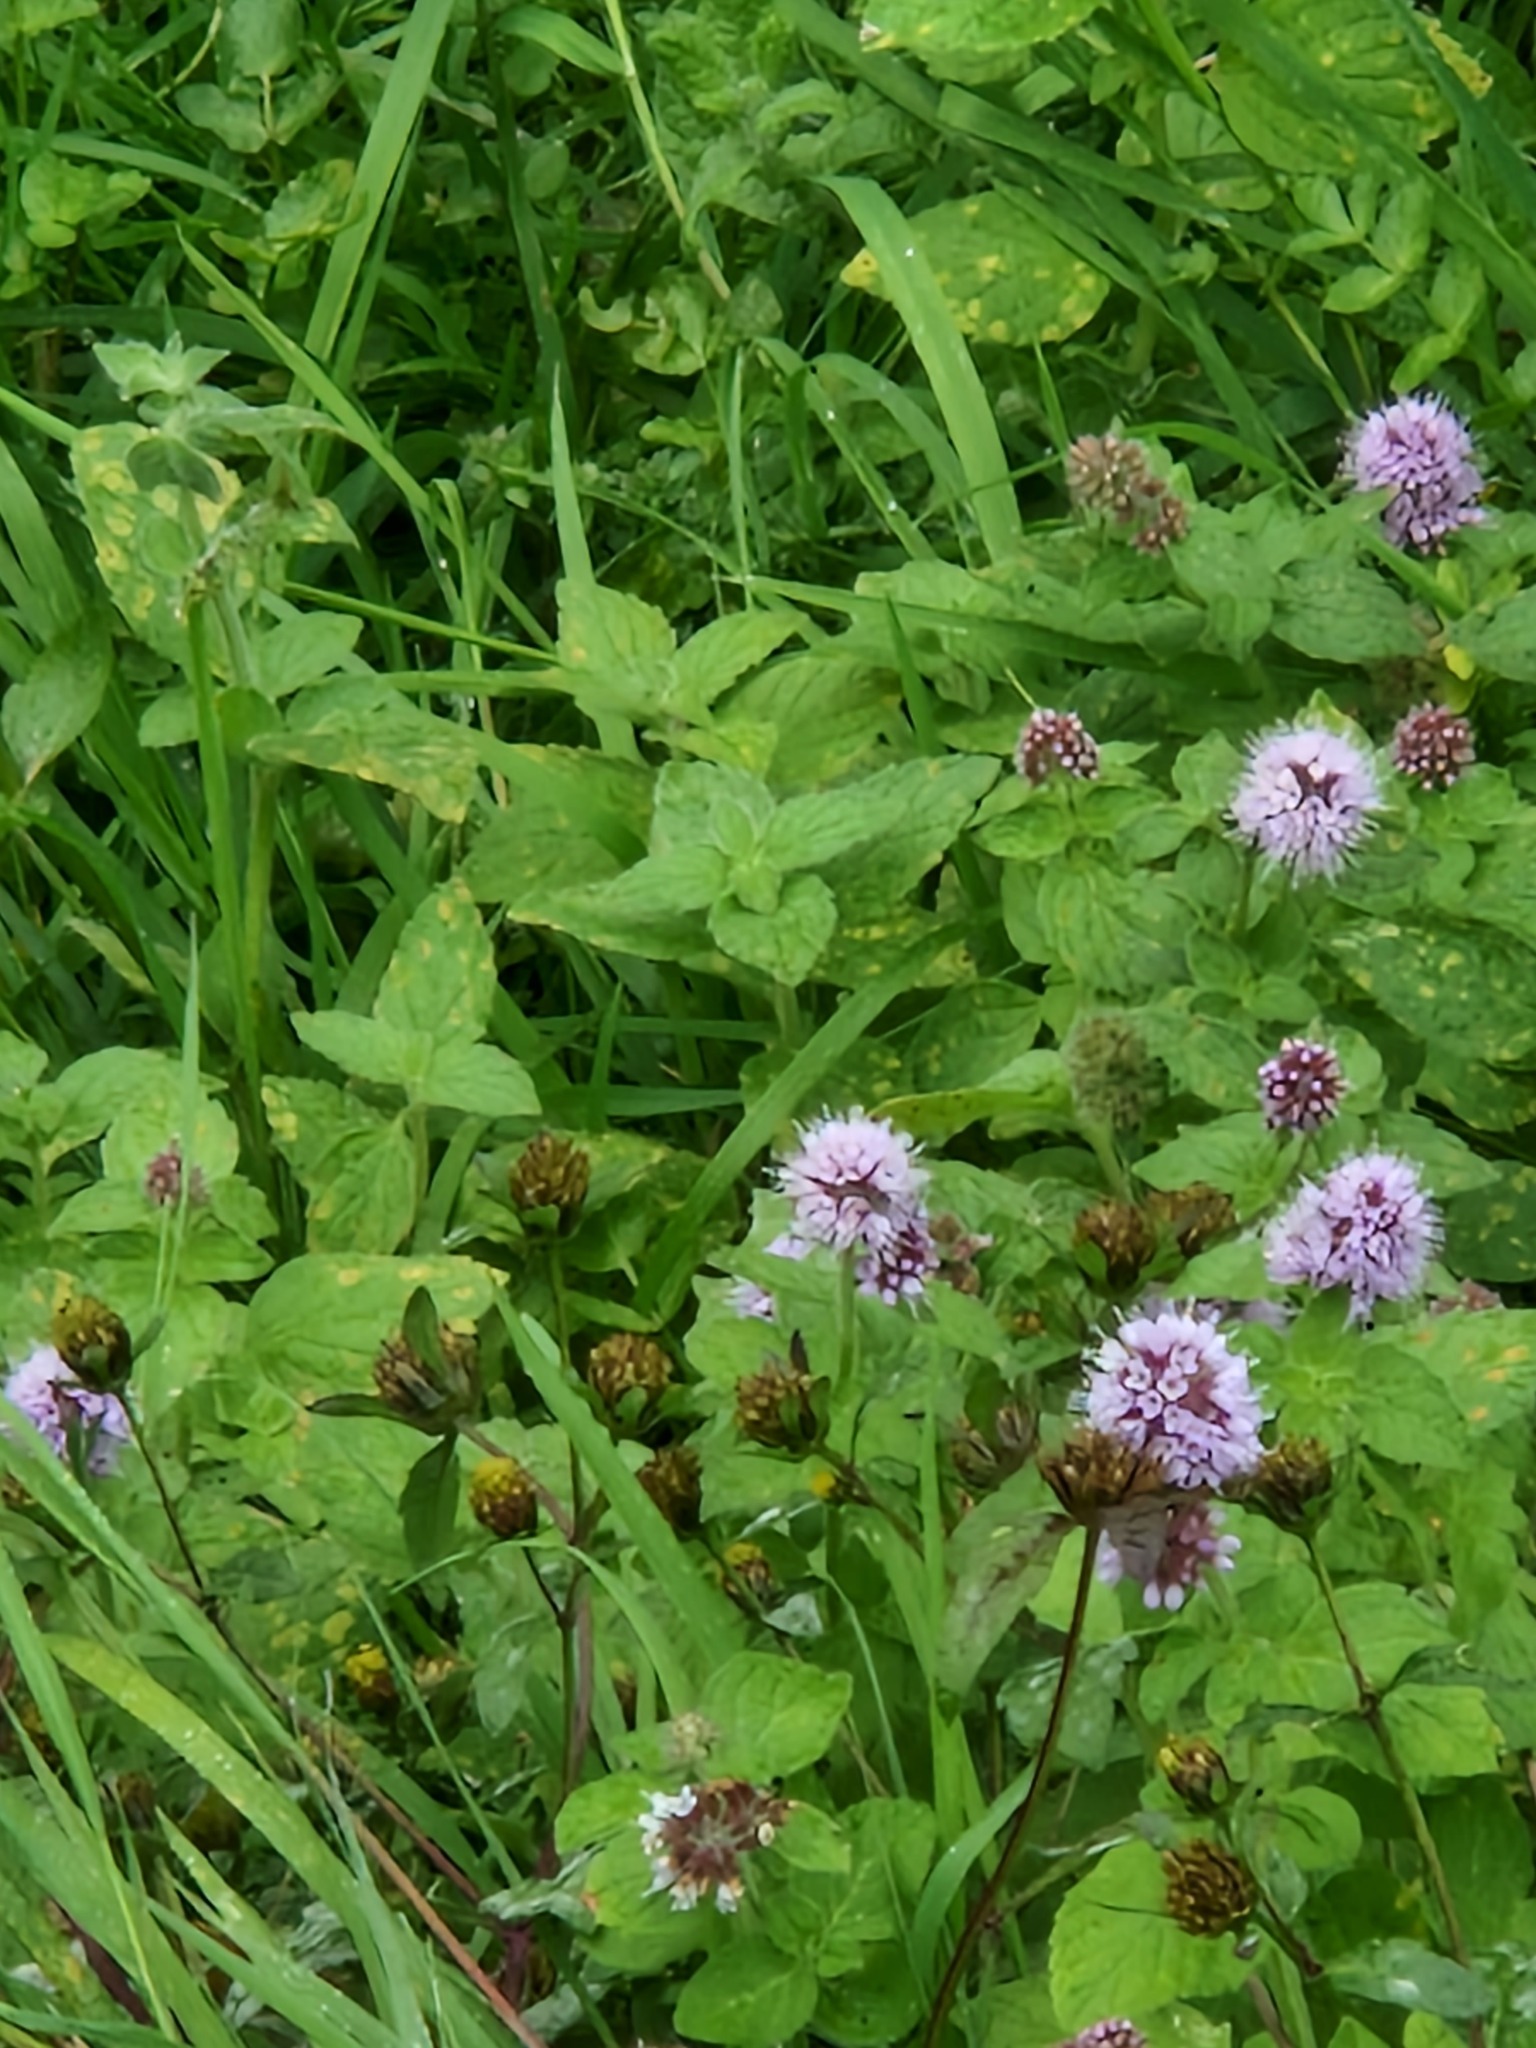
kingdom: Plantae
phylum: Tracheophyta
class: Magnoliopsida
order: Lamiales
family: Lamiaceae
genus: Mentha
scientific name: Mentha aquatica
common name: Water mint
